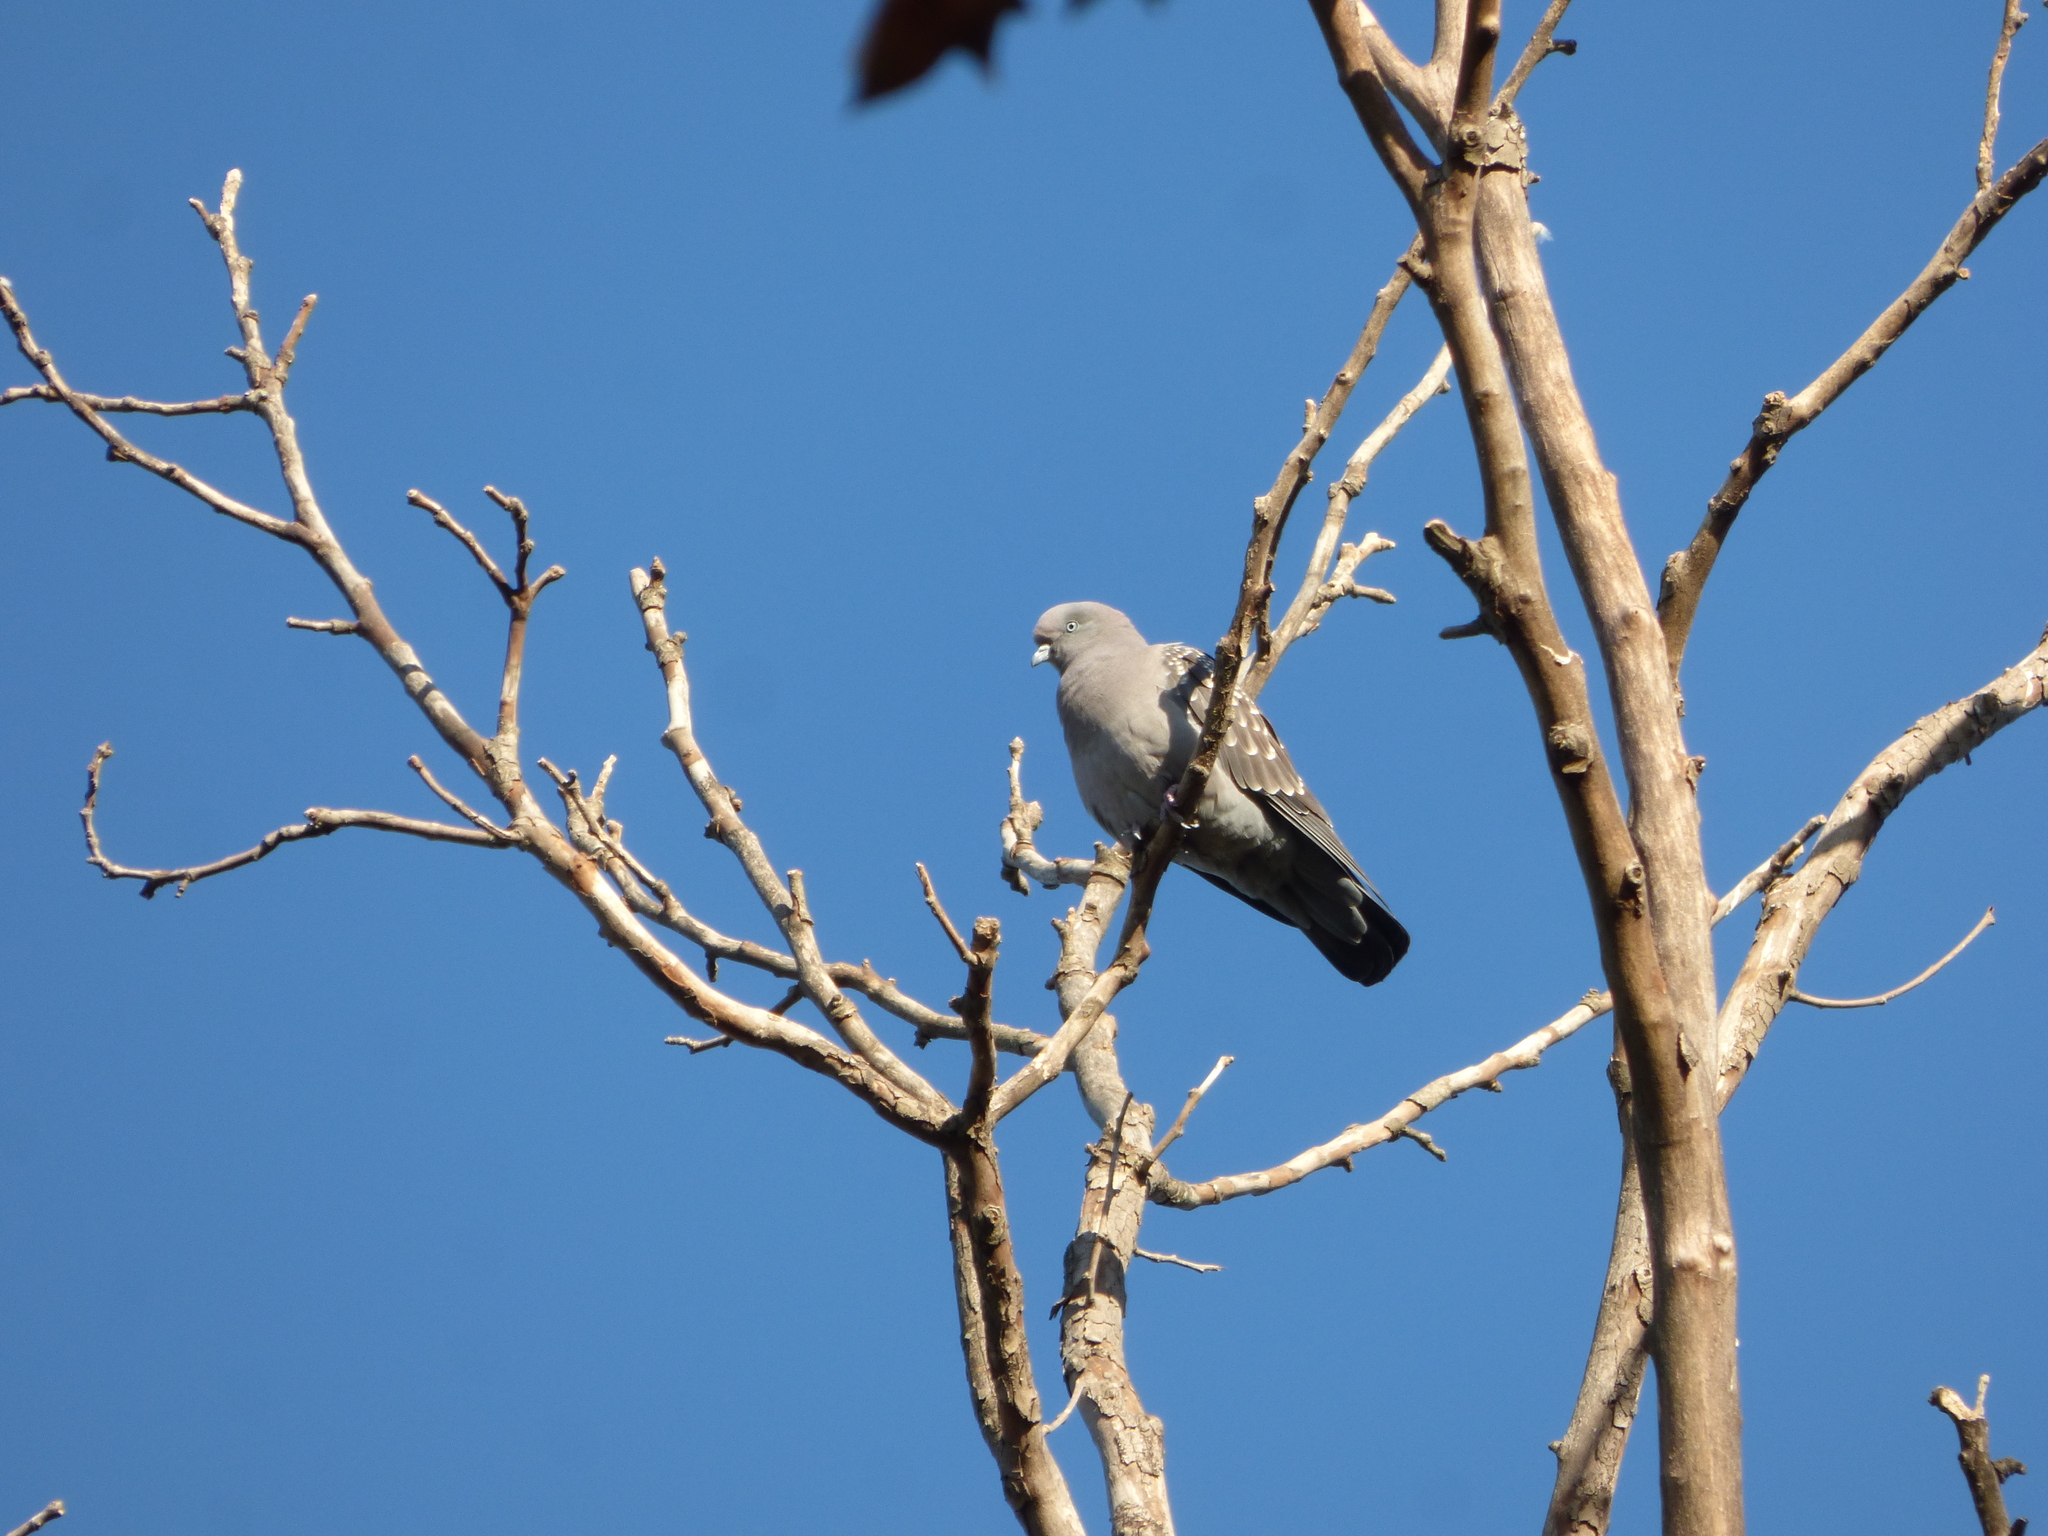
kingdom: Animalia
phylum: Chordata
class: Aves
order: Columbiformes
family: Columbidae
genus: Patagioenas
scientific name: Patagioenas maculosa
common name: Spot-winged pigeon
